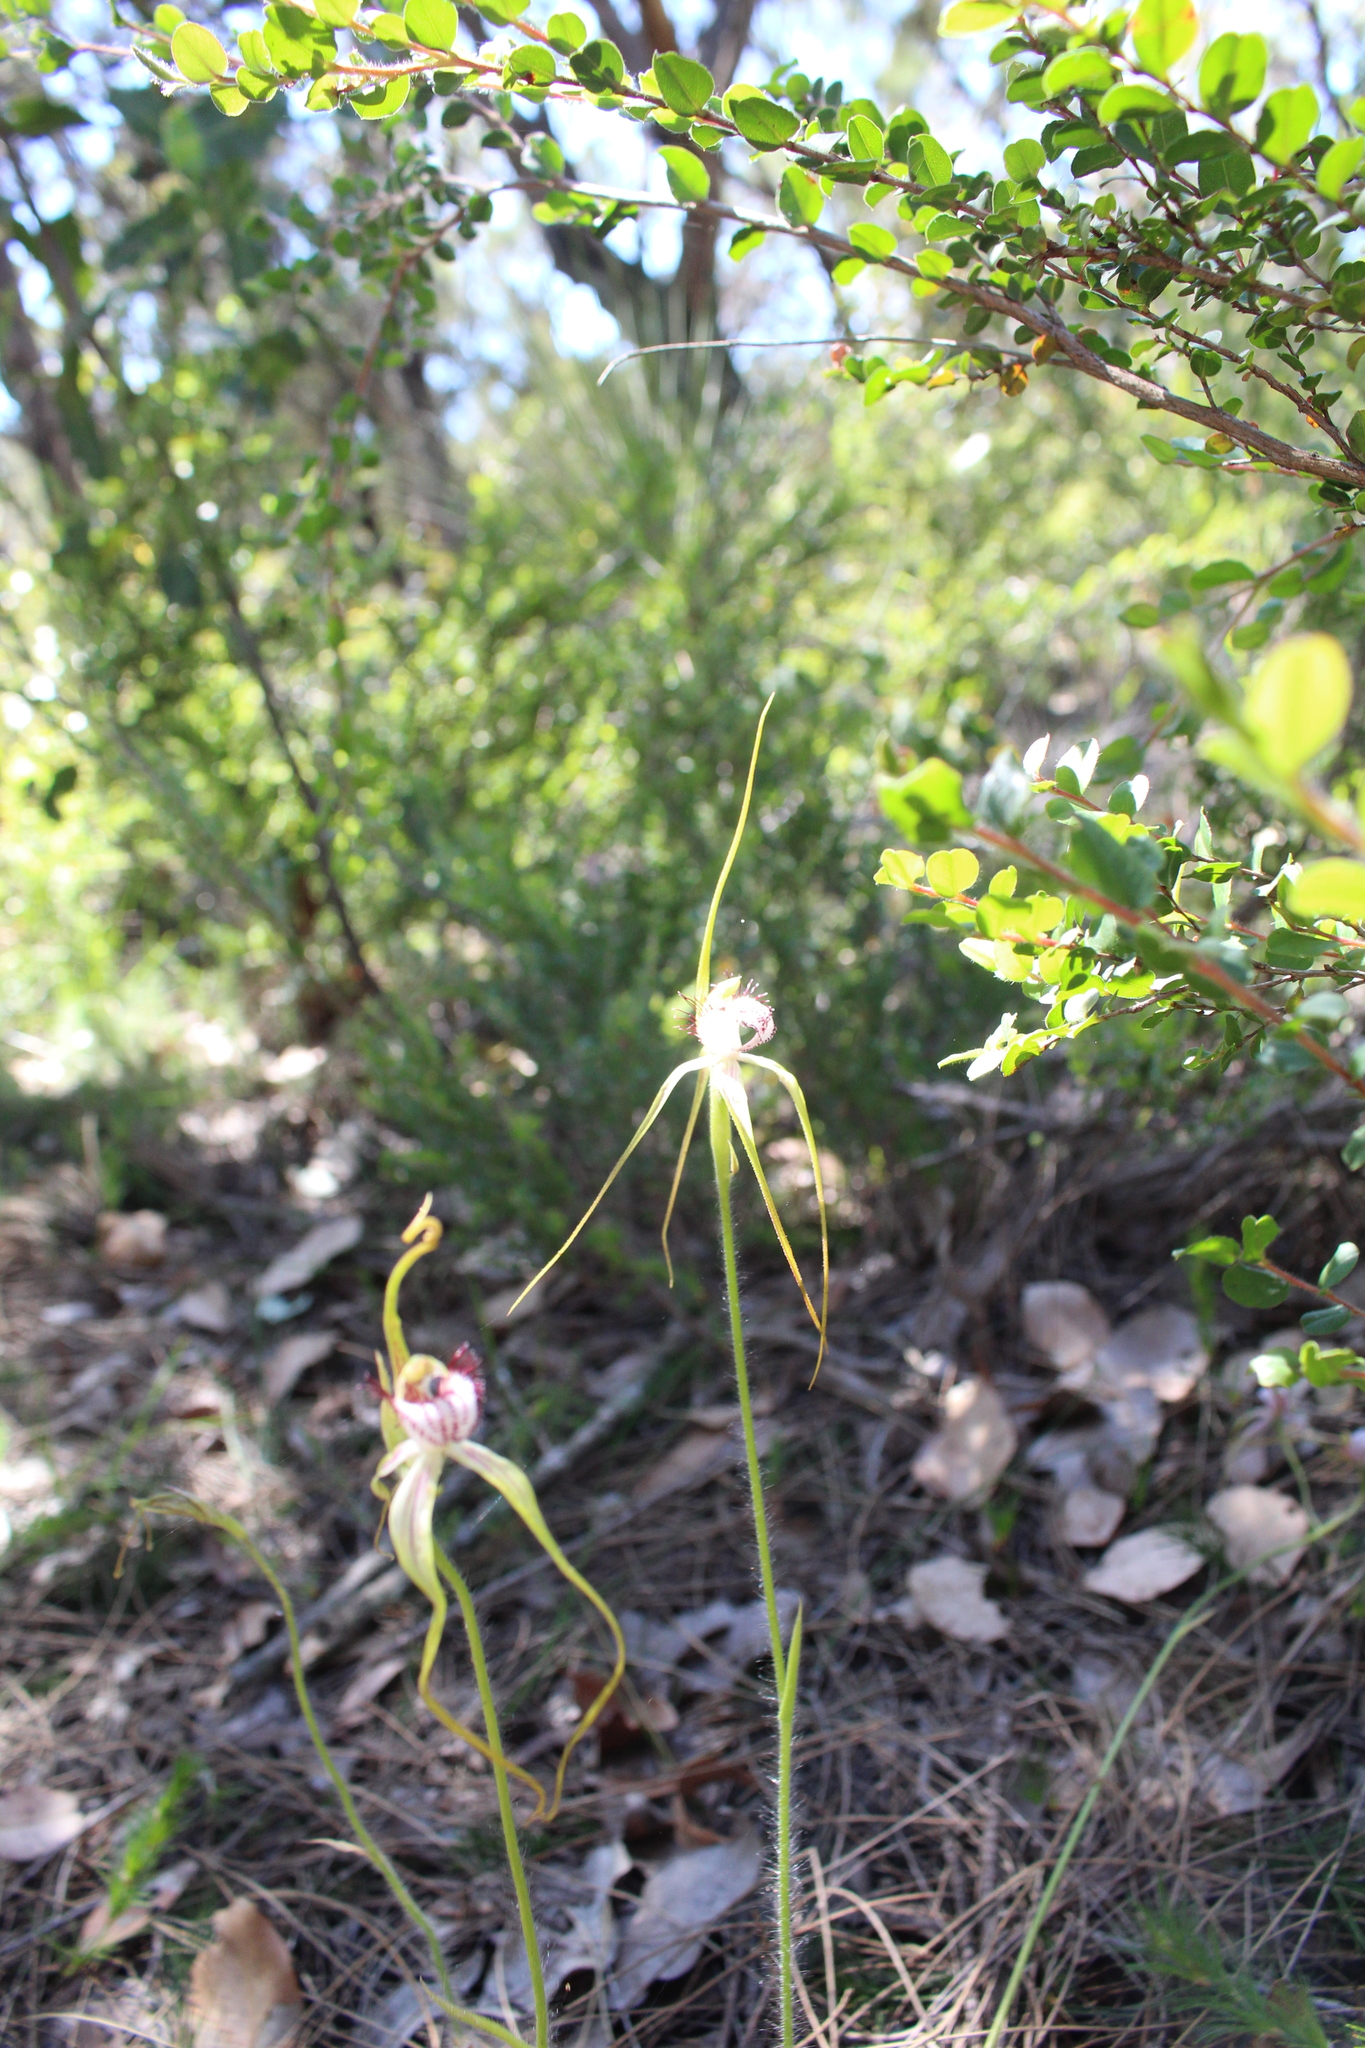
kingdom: Plantae
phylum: Tracheophyta
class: Liliopsida
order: Asparagales
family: Orchidaceae
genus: Caladenia
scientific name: Caladenia serotina
